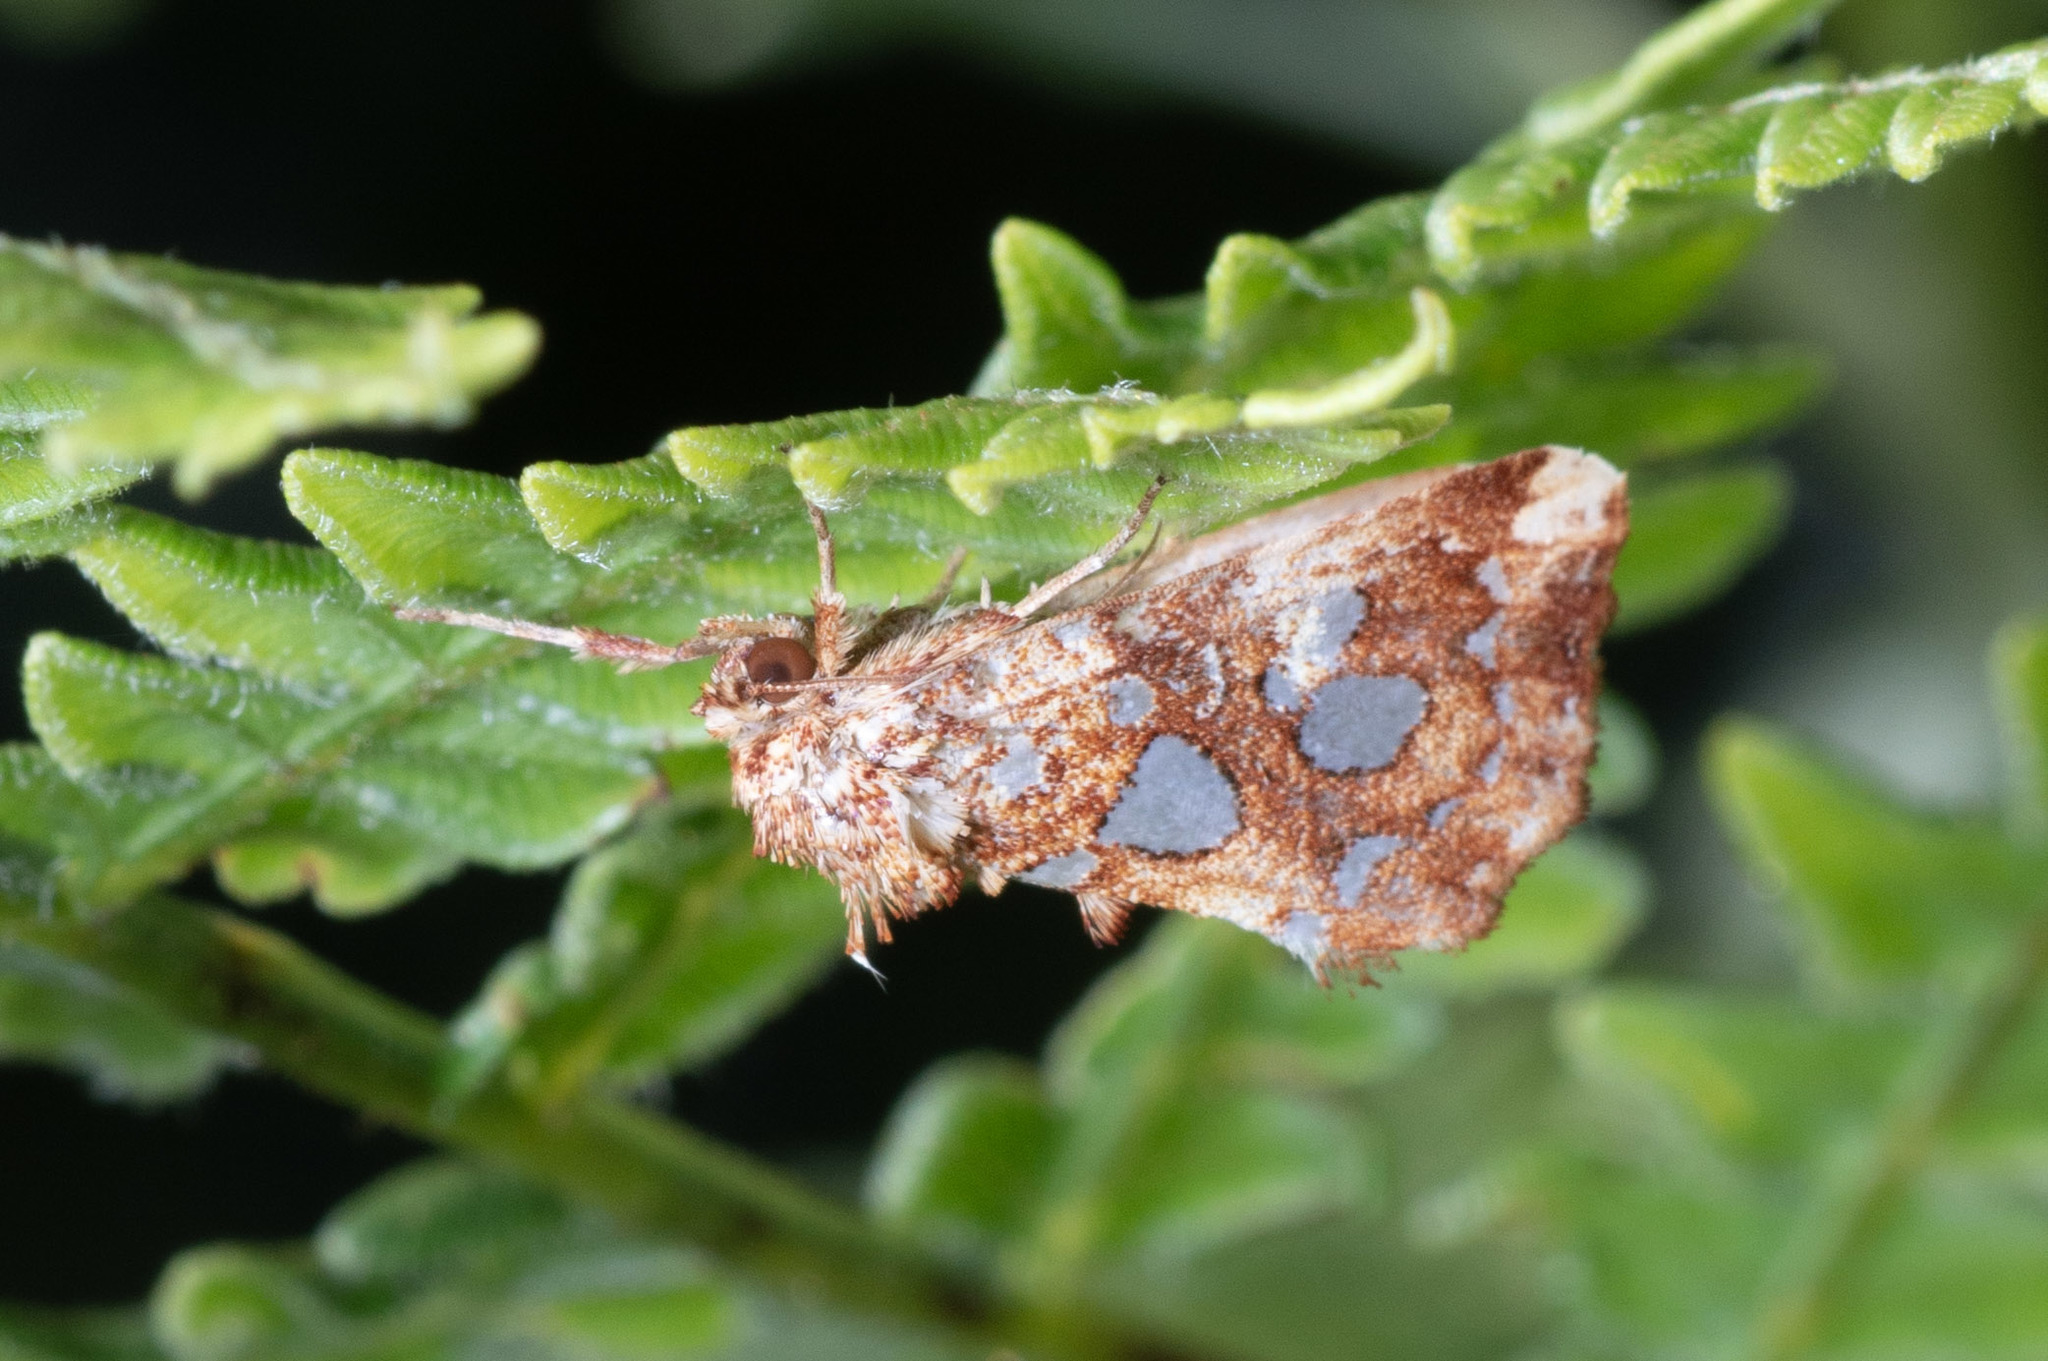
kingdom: Animalia
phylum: Arthropoda
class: Insecta
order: Lepidoptera
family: Noctuidae
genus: Callopistria
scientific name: Callopistria cordata
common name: Silver-spotted fern moth
